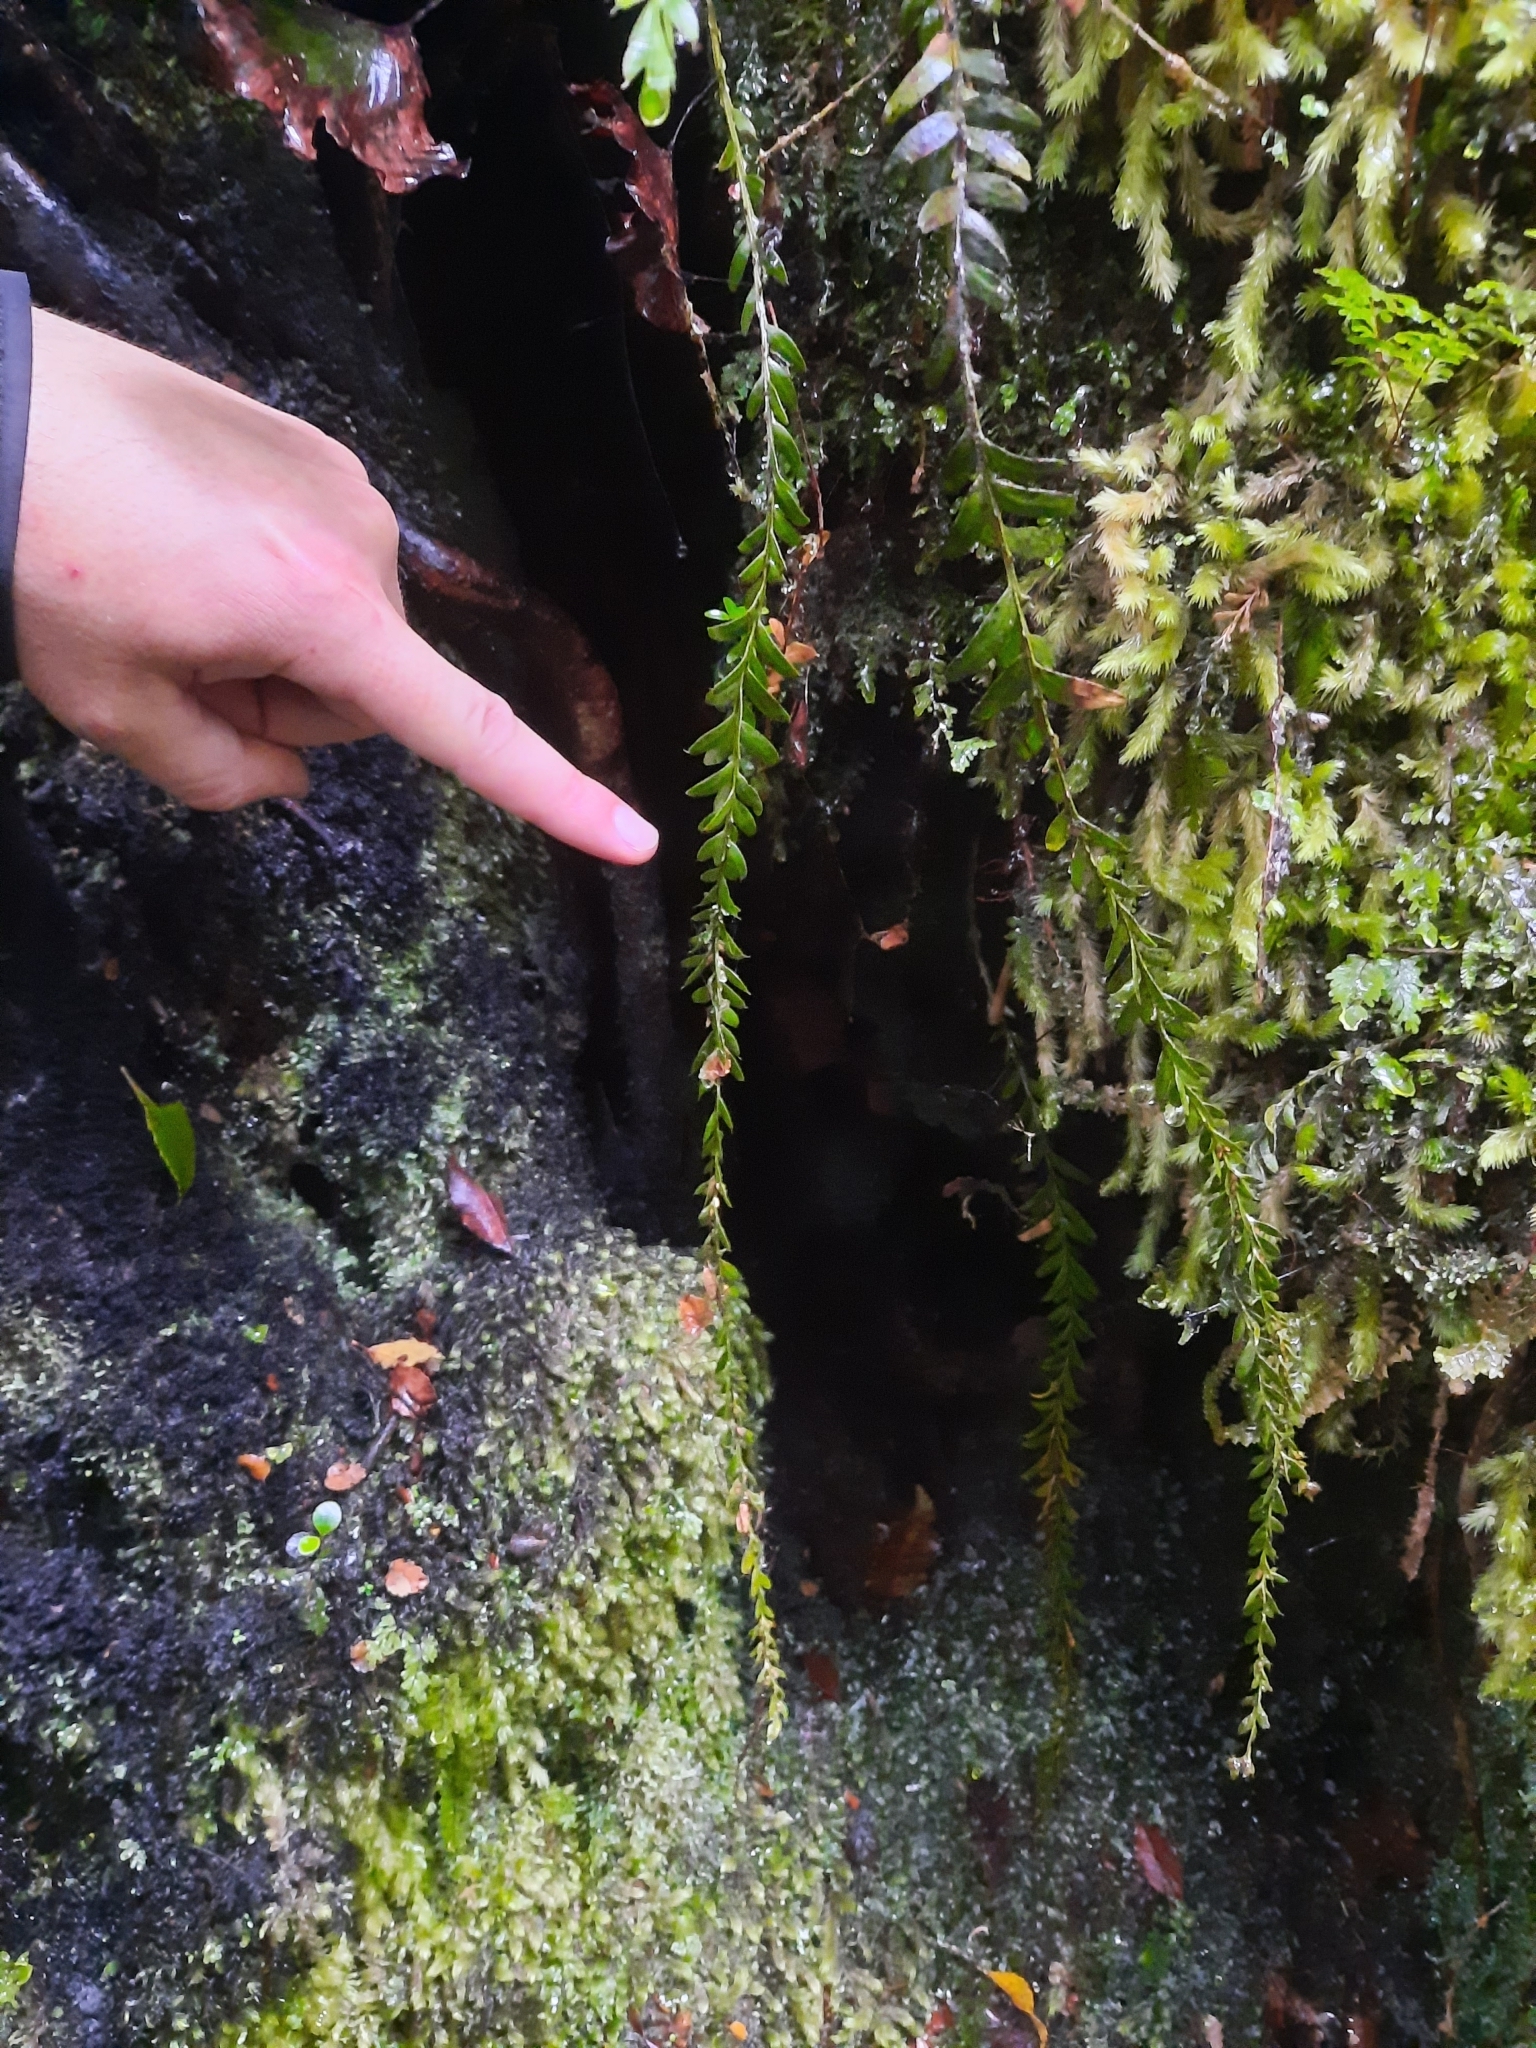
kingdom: Plantae
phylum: Tracheophyta
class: Polypodiopsida
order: Psilotales
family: Psilotaceae
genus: Tmesipteris
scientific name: Tmesipteris tannensis
